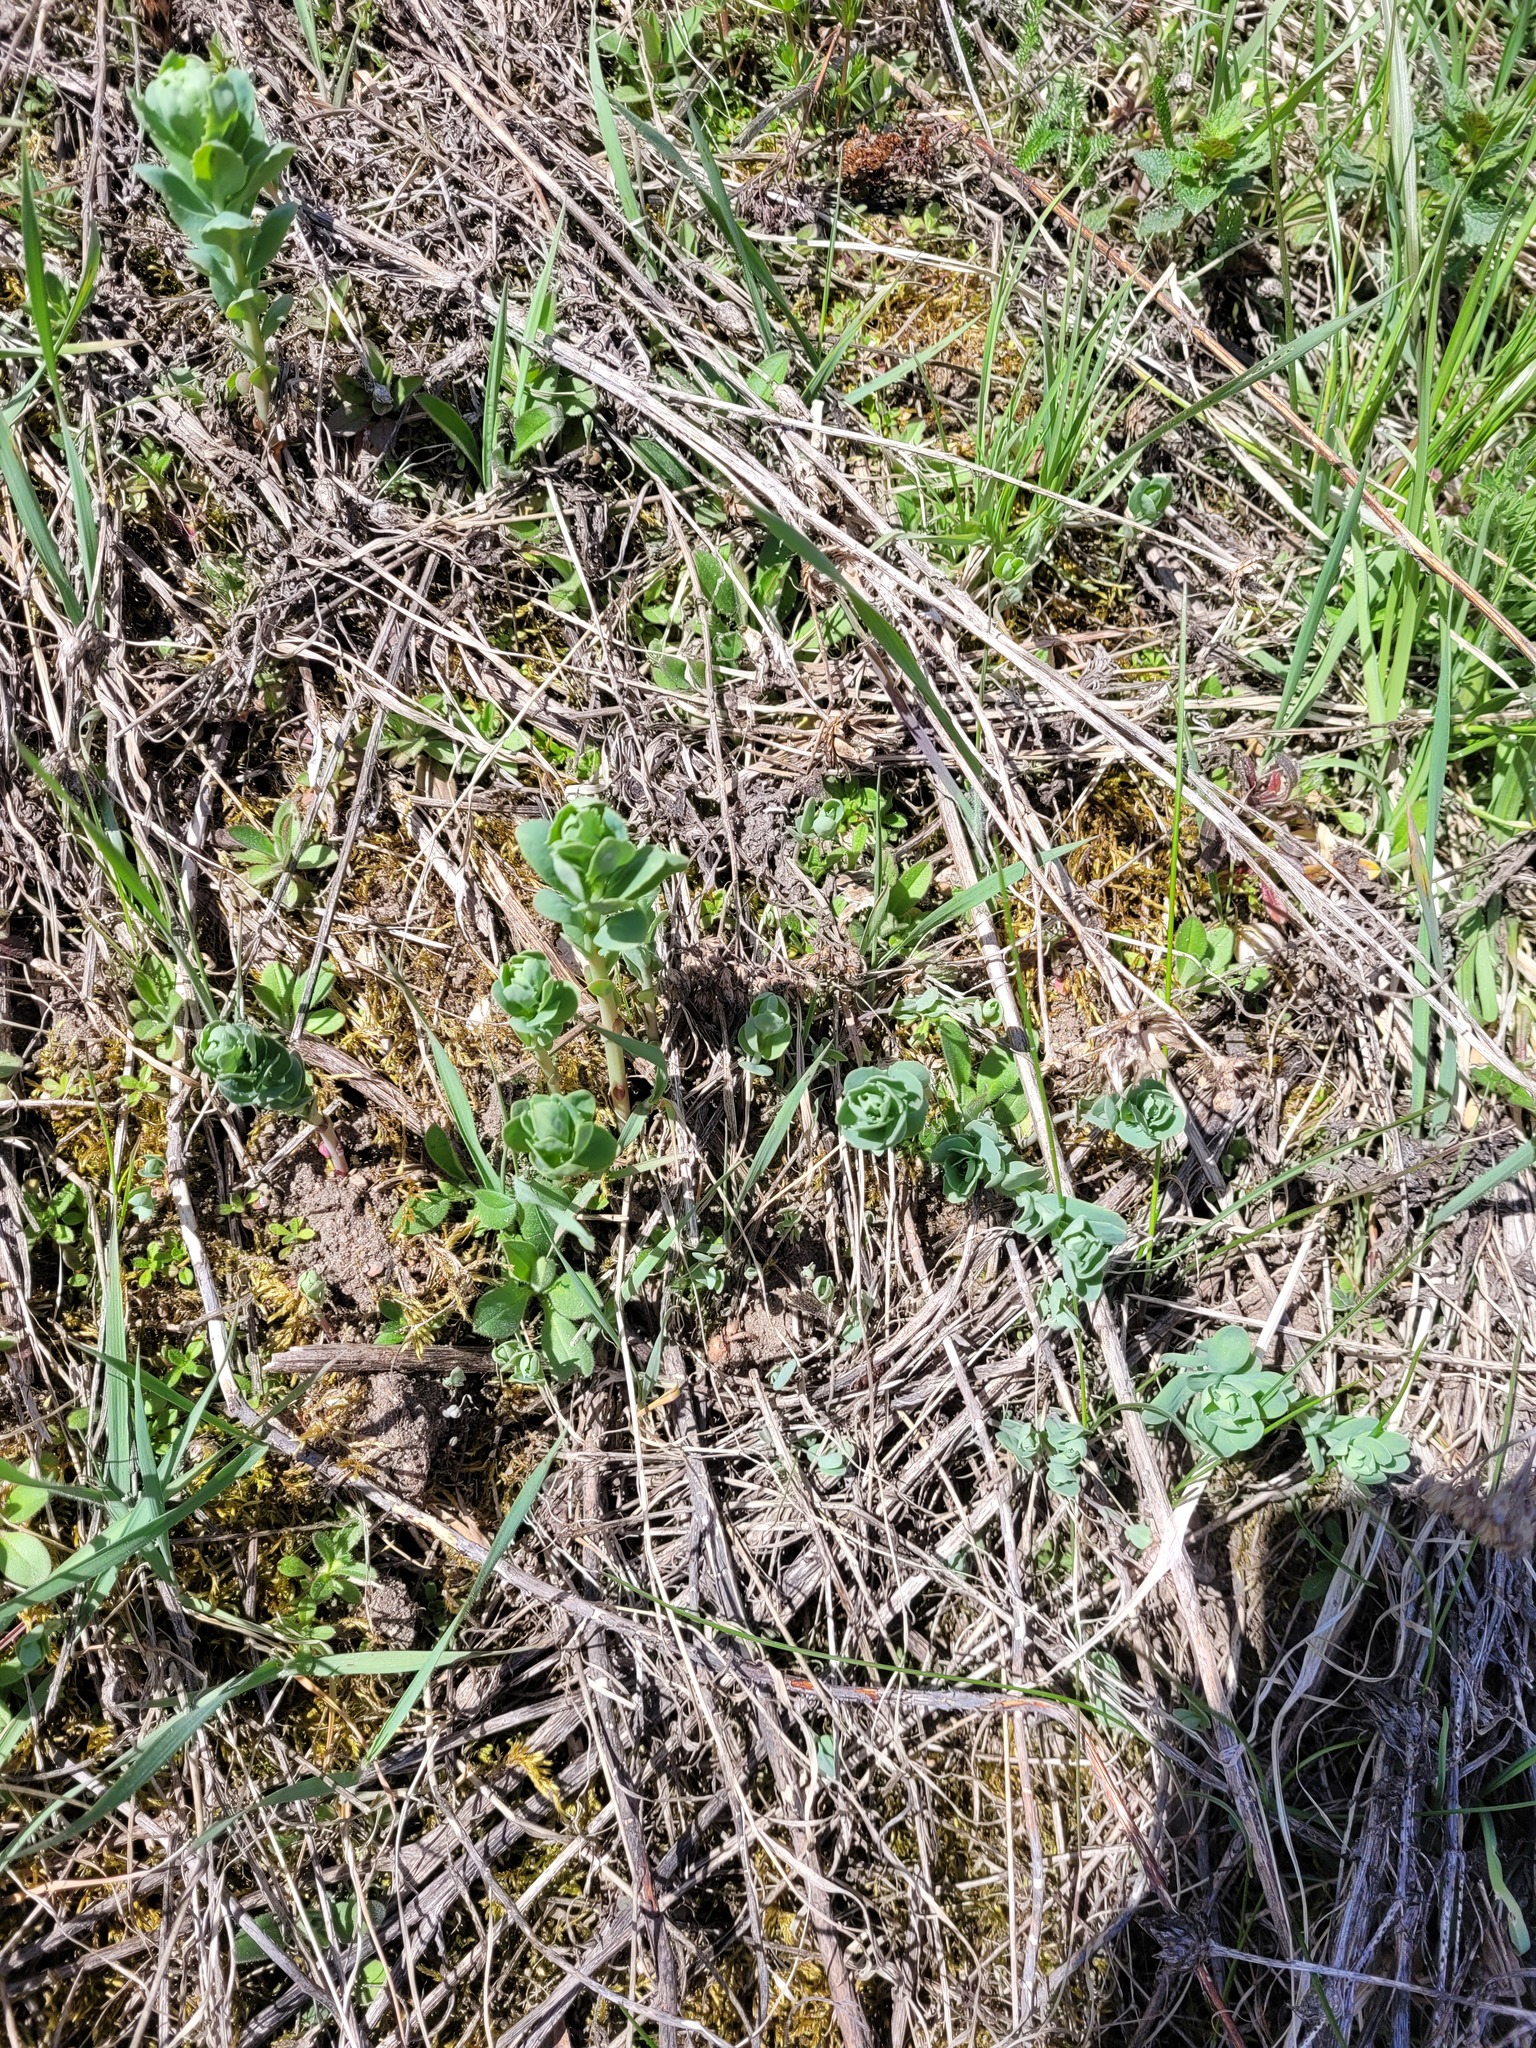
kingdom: Plantae
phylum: Tracheophyta
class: Magnoliopsida
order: Saxifragales
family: Crassulaceae
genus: Hylotelephium
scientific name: Hylotelephium telephium
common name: Live-forever
